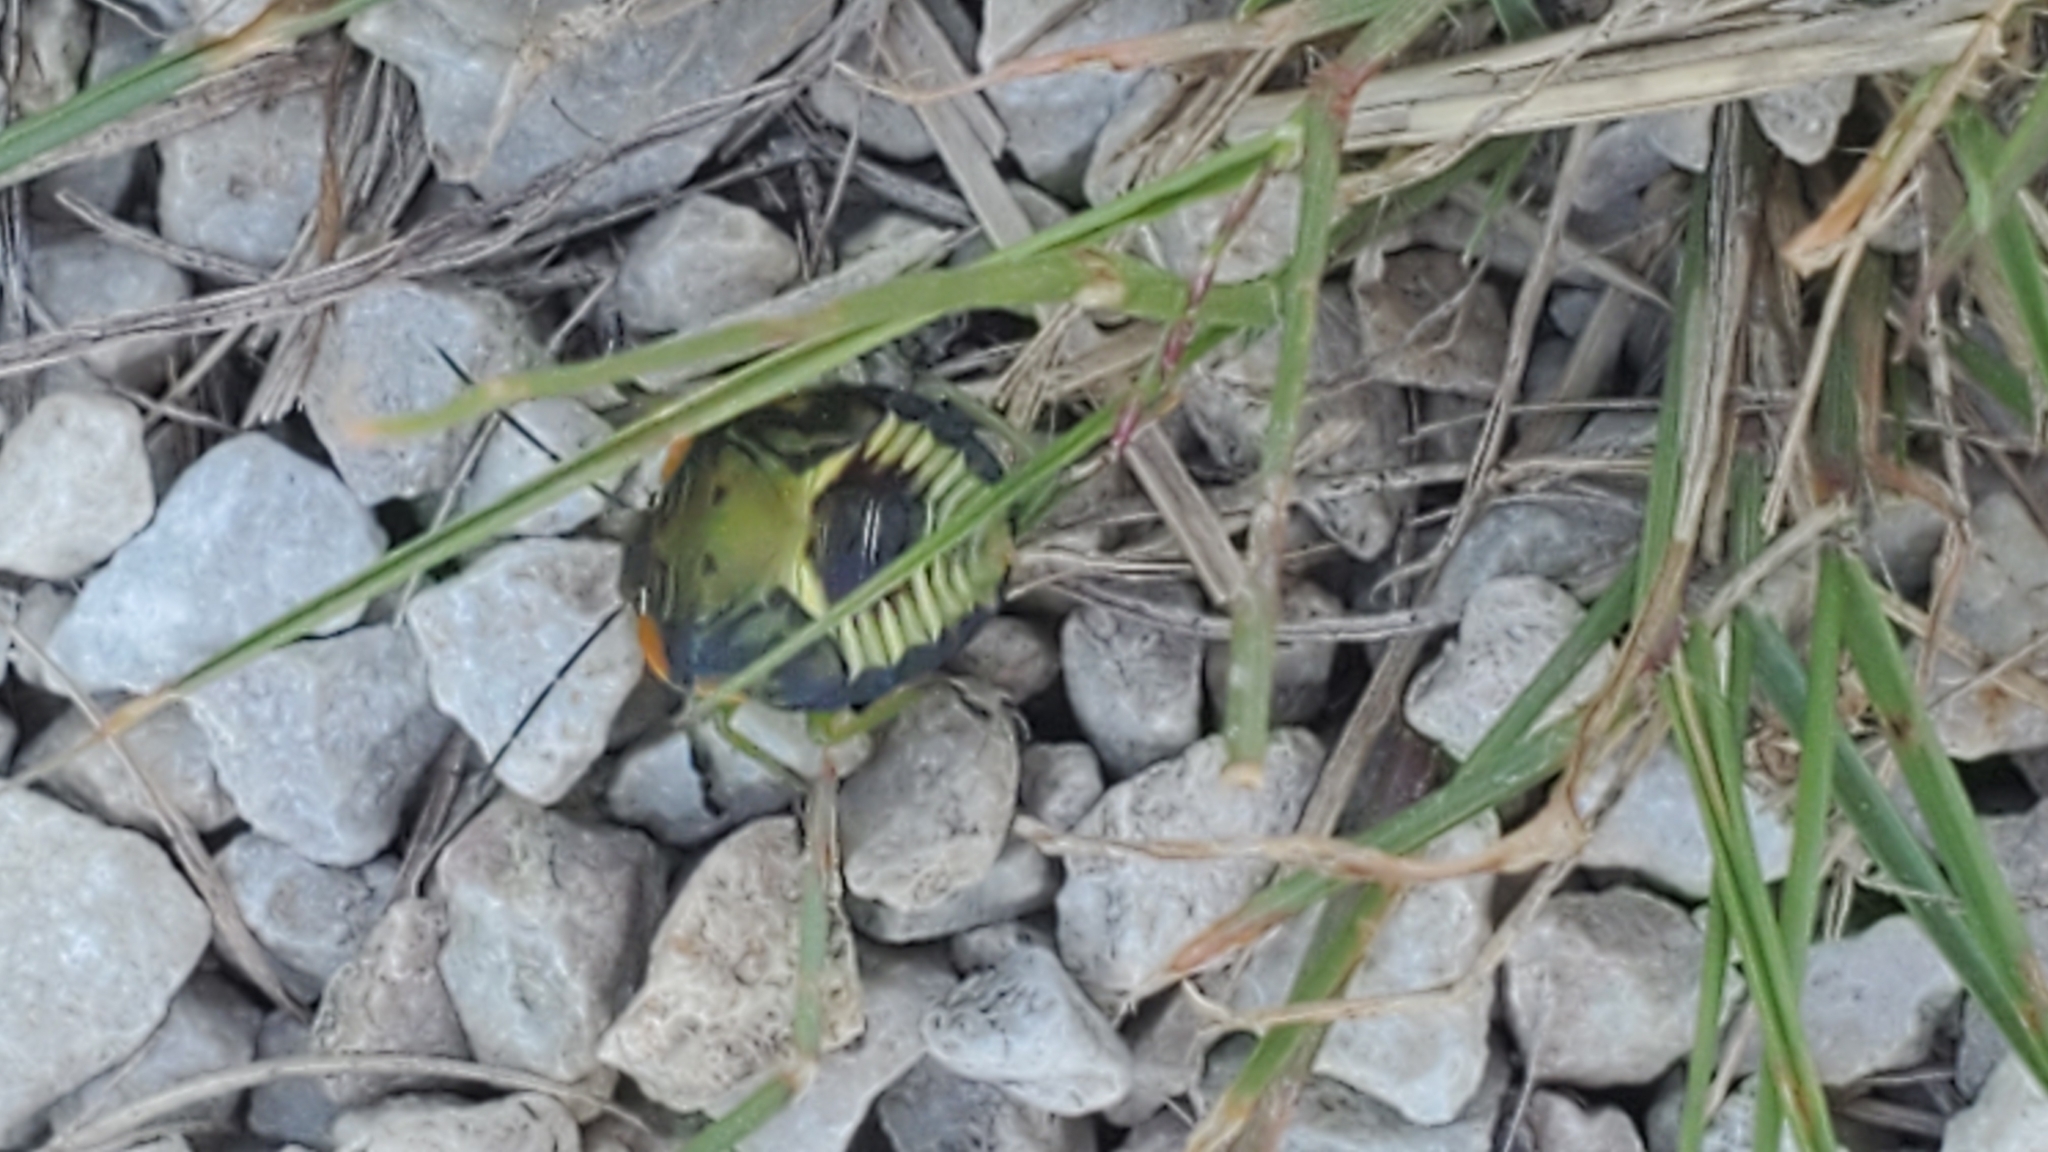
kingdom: Animalia
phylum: Arthropoda
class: Insecta
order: Hemiptera
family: Pentatomidae
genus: Chinavia
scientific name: Chinavia hilaris
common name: Green stink bug
